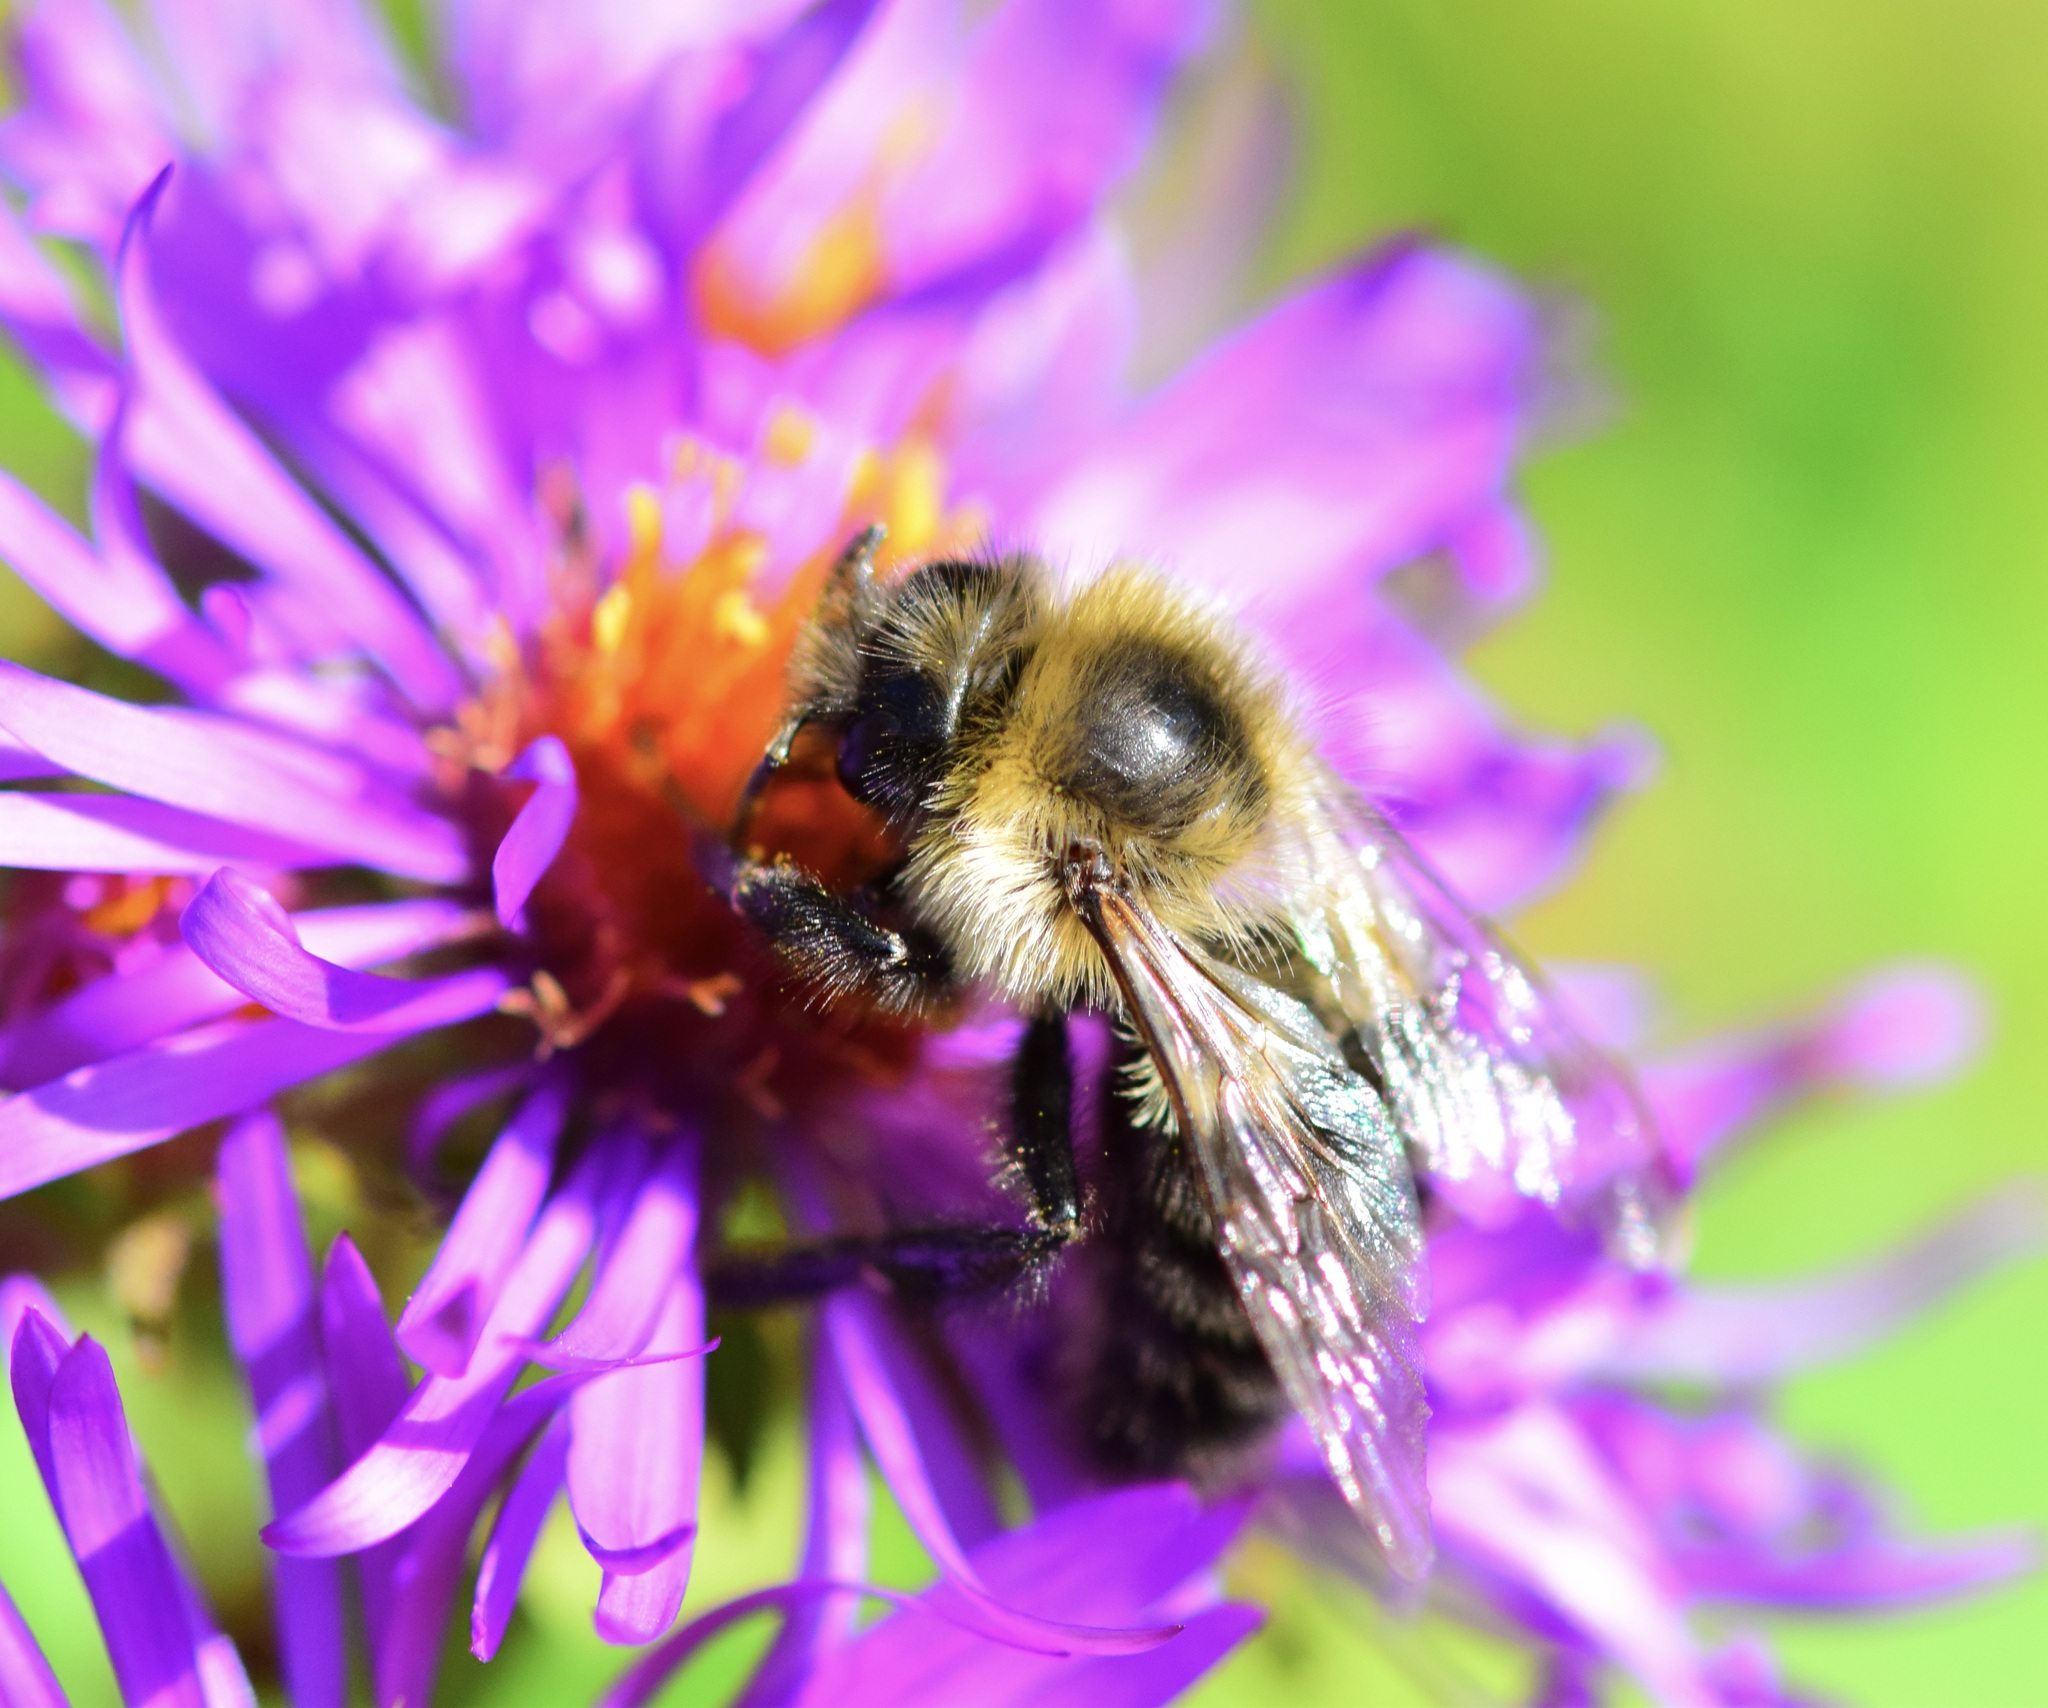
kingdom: Animalia
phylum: Arthropoda
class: Insecta
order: Hymenoptera
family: Apidae
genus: Bombus
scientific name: Bombus impatiens
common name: Common eastern bumble bee
